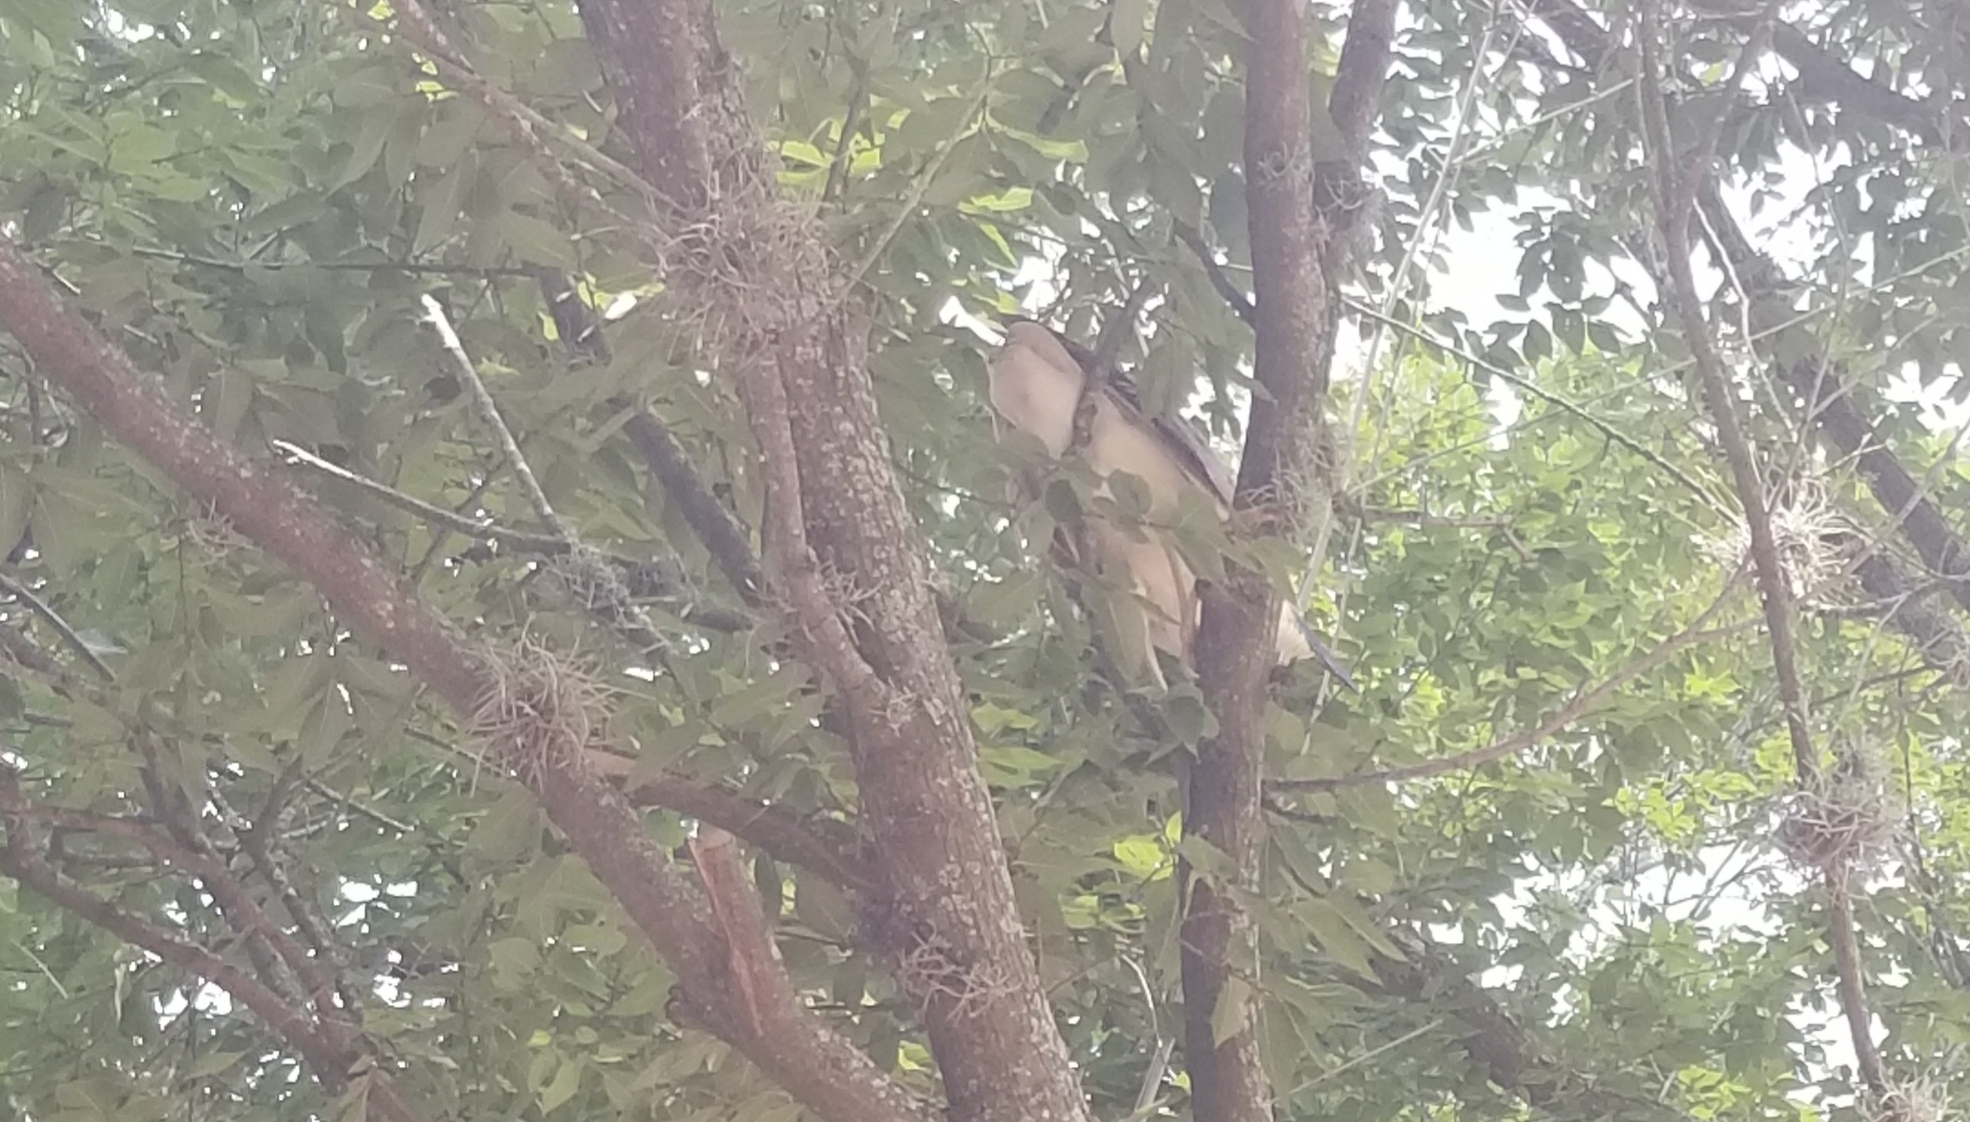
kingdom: Animalia
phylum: Chordata
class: Aves
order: Pelecaniformes
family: Ardeidae
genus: Nycticorax
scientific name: Nycticorax nycticorax
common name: Black-crowned night heron
